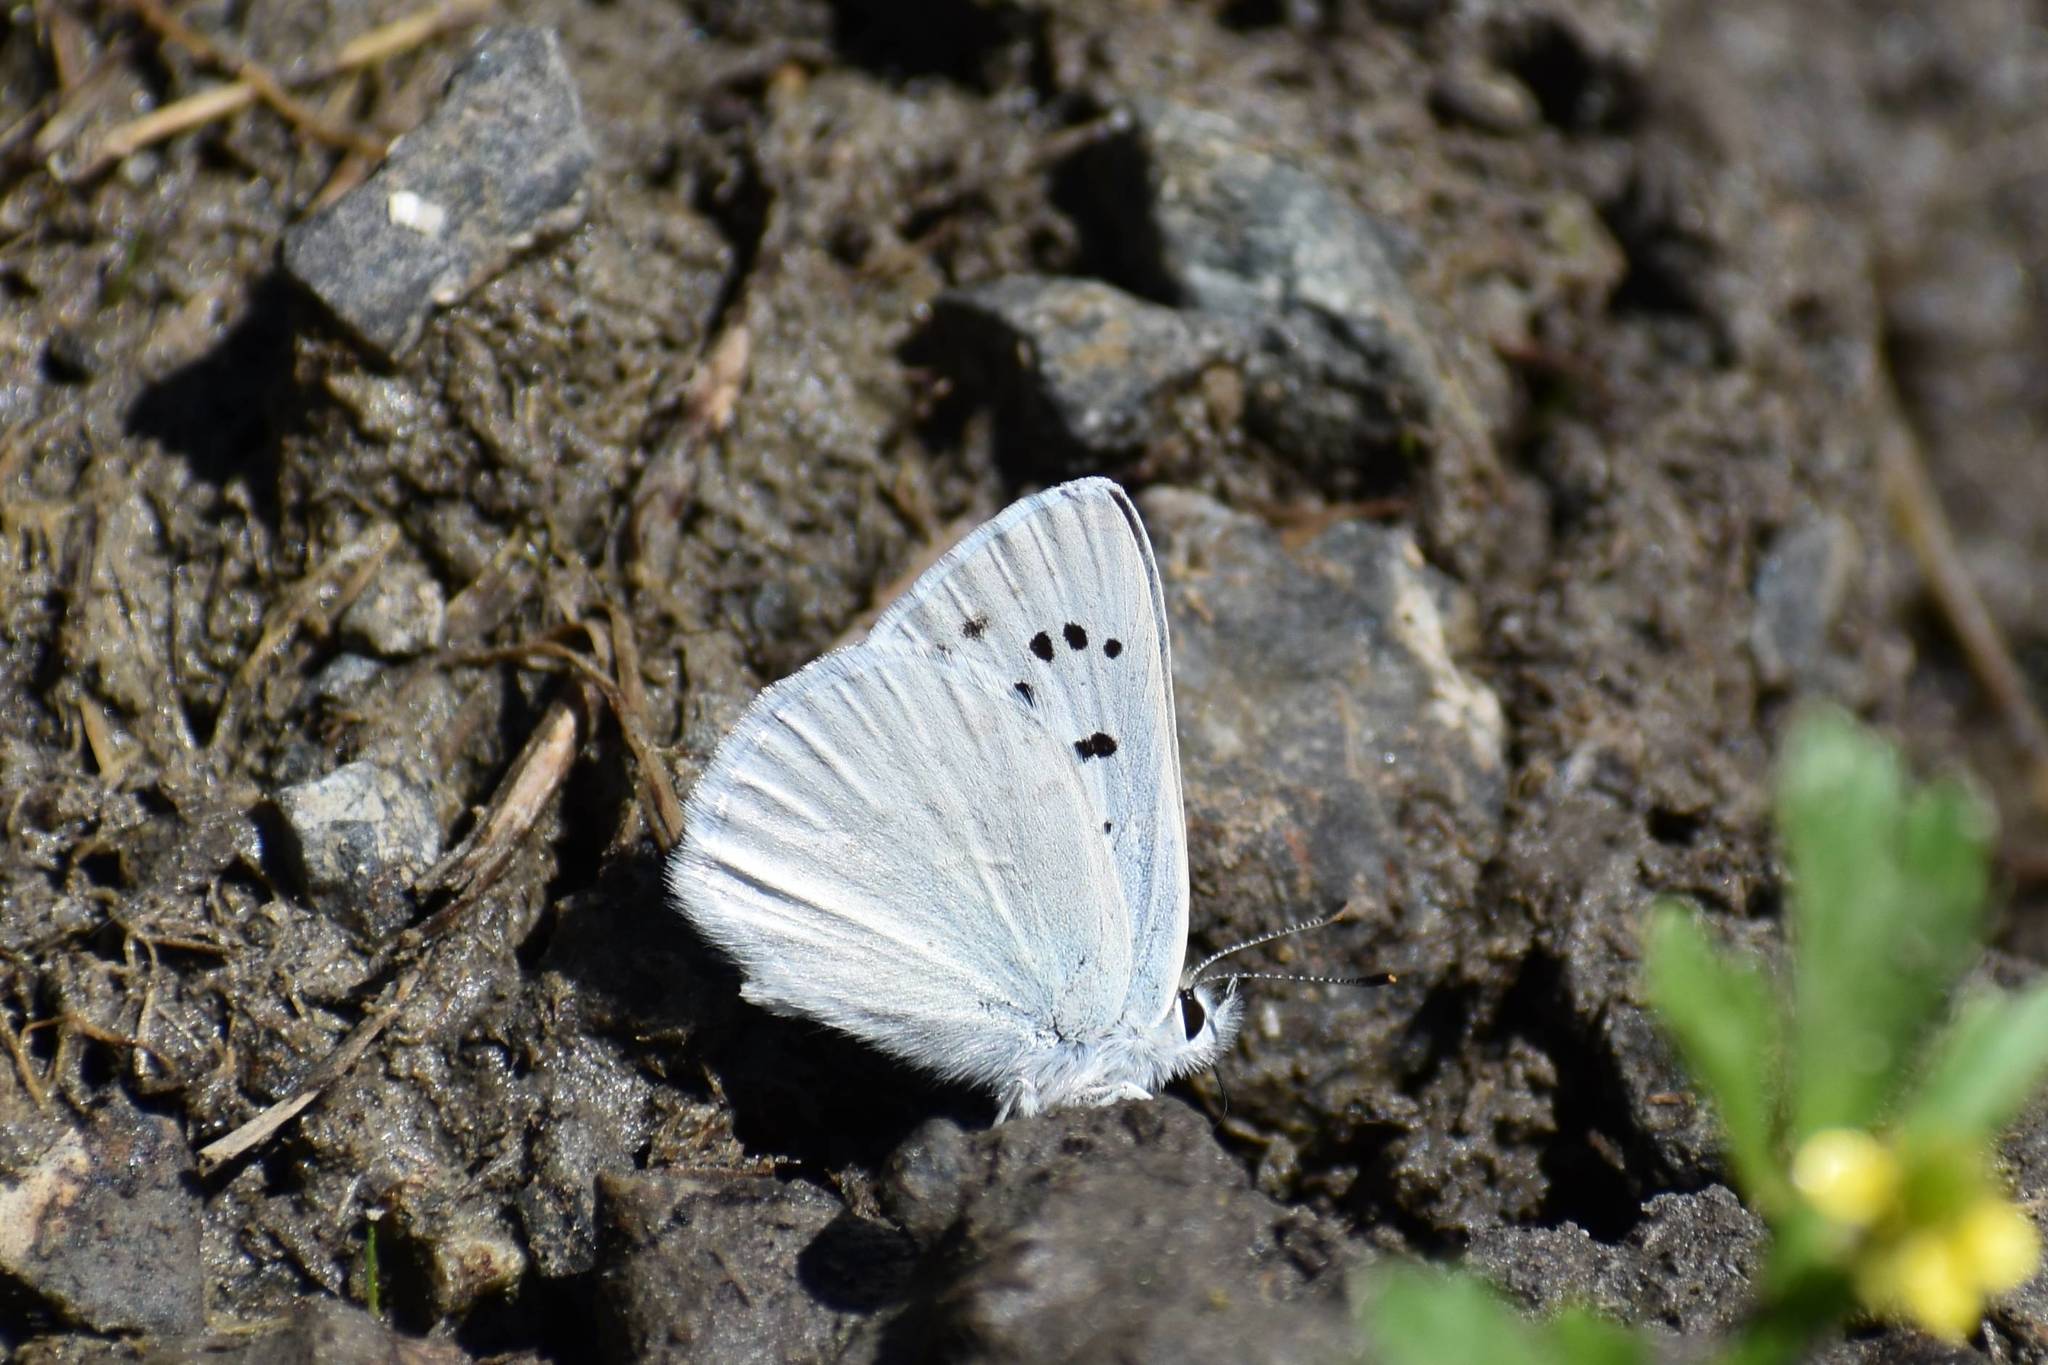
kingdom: Animalia
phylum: Arthropoda
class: Insecta
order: Lepidoptera
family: Lycaenidae
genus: Tharsalea
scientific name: Tharsalea heteronea
